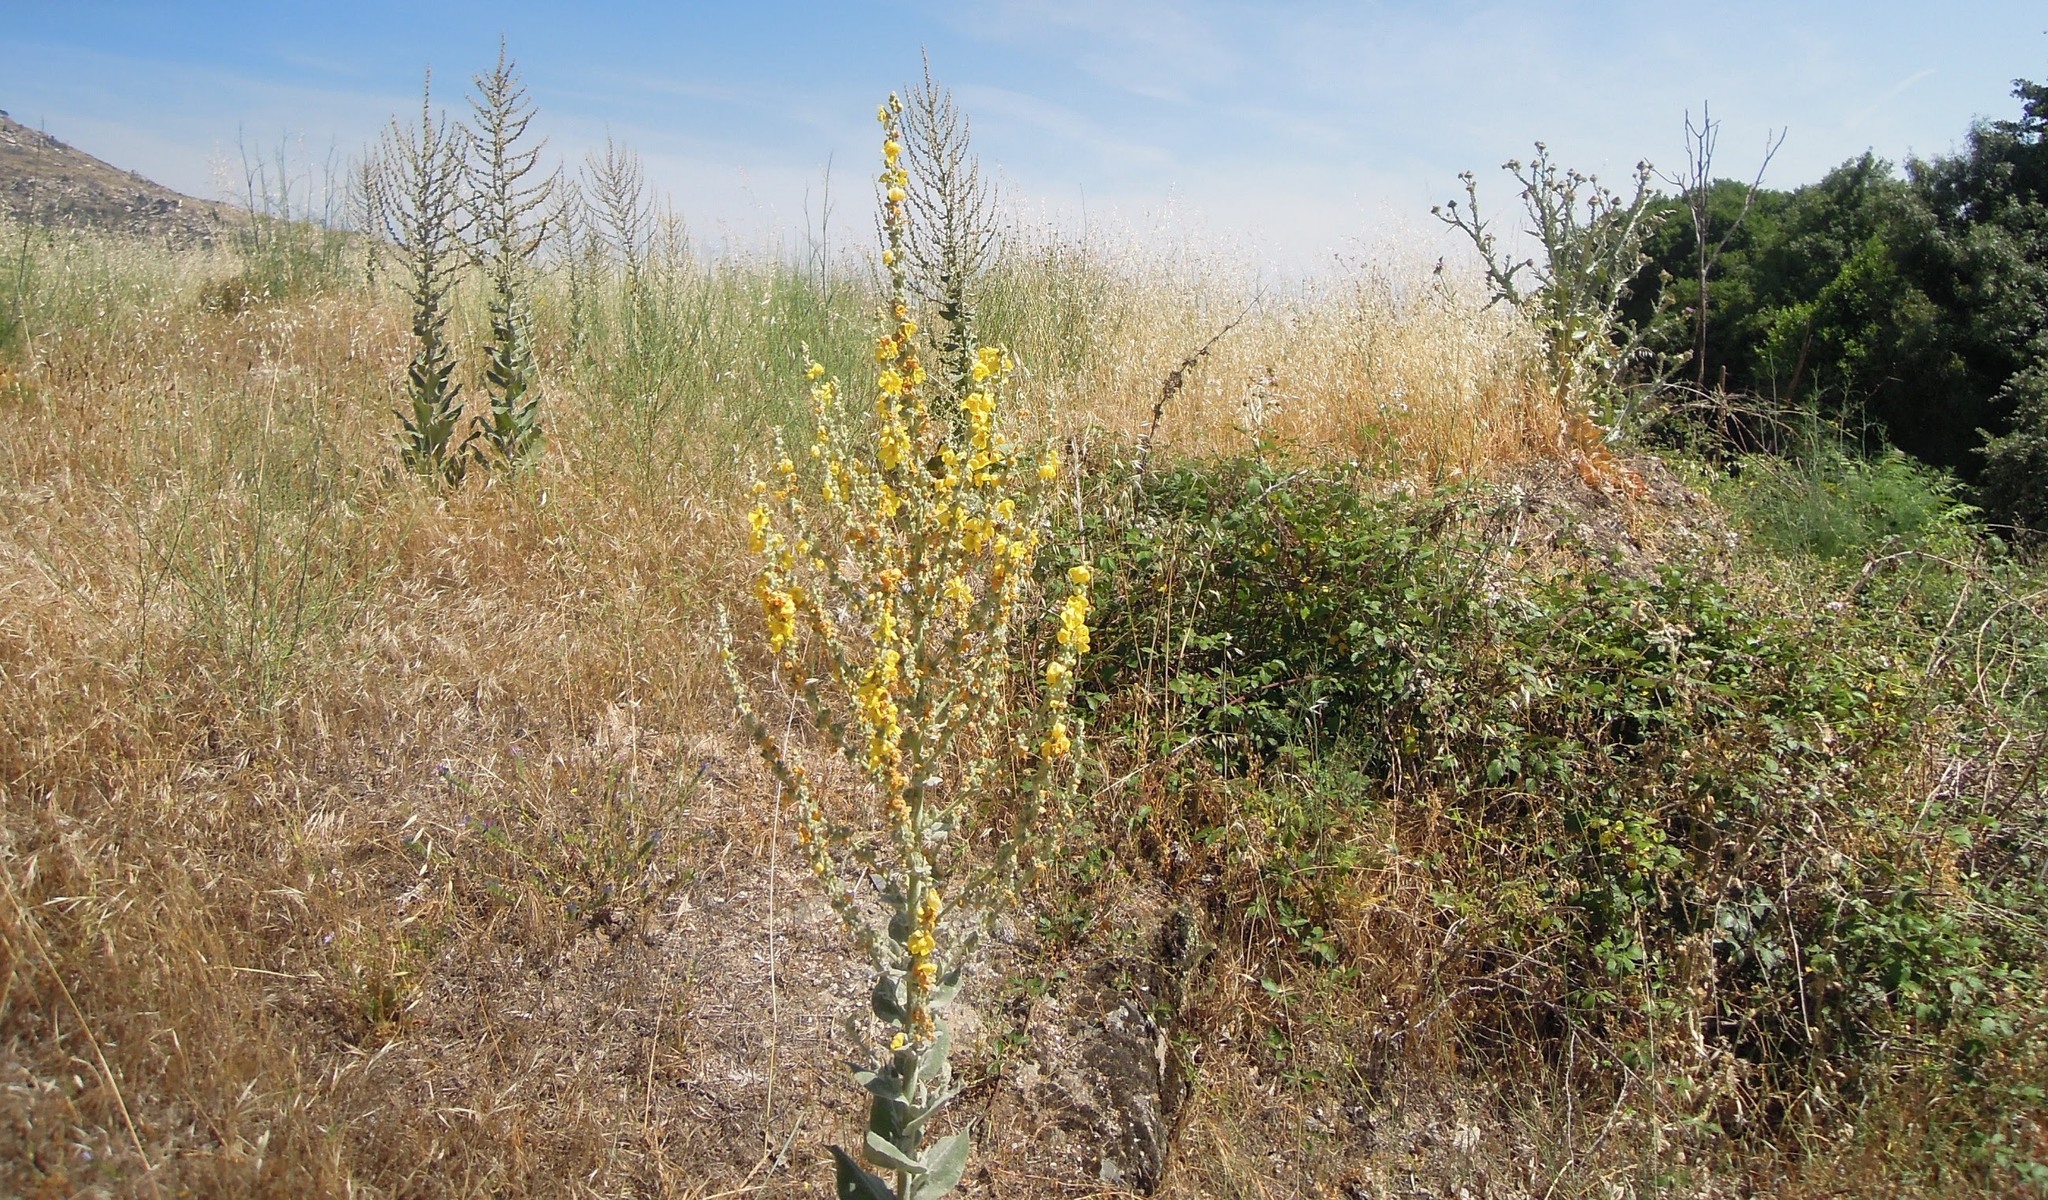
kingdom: Plantae
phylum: Tracheophyta
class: Magnoliopsida
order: Lamiales
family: Scrophulariaceae
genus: Verbascum
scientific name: Verbascum pulverulentum
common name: Broad-leaf mullein
